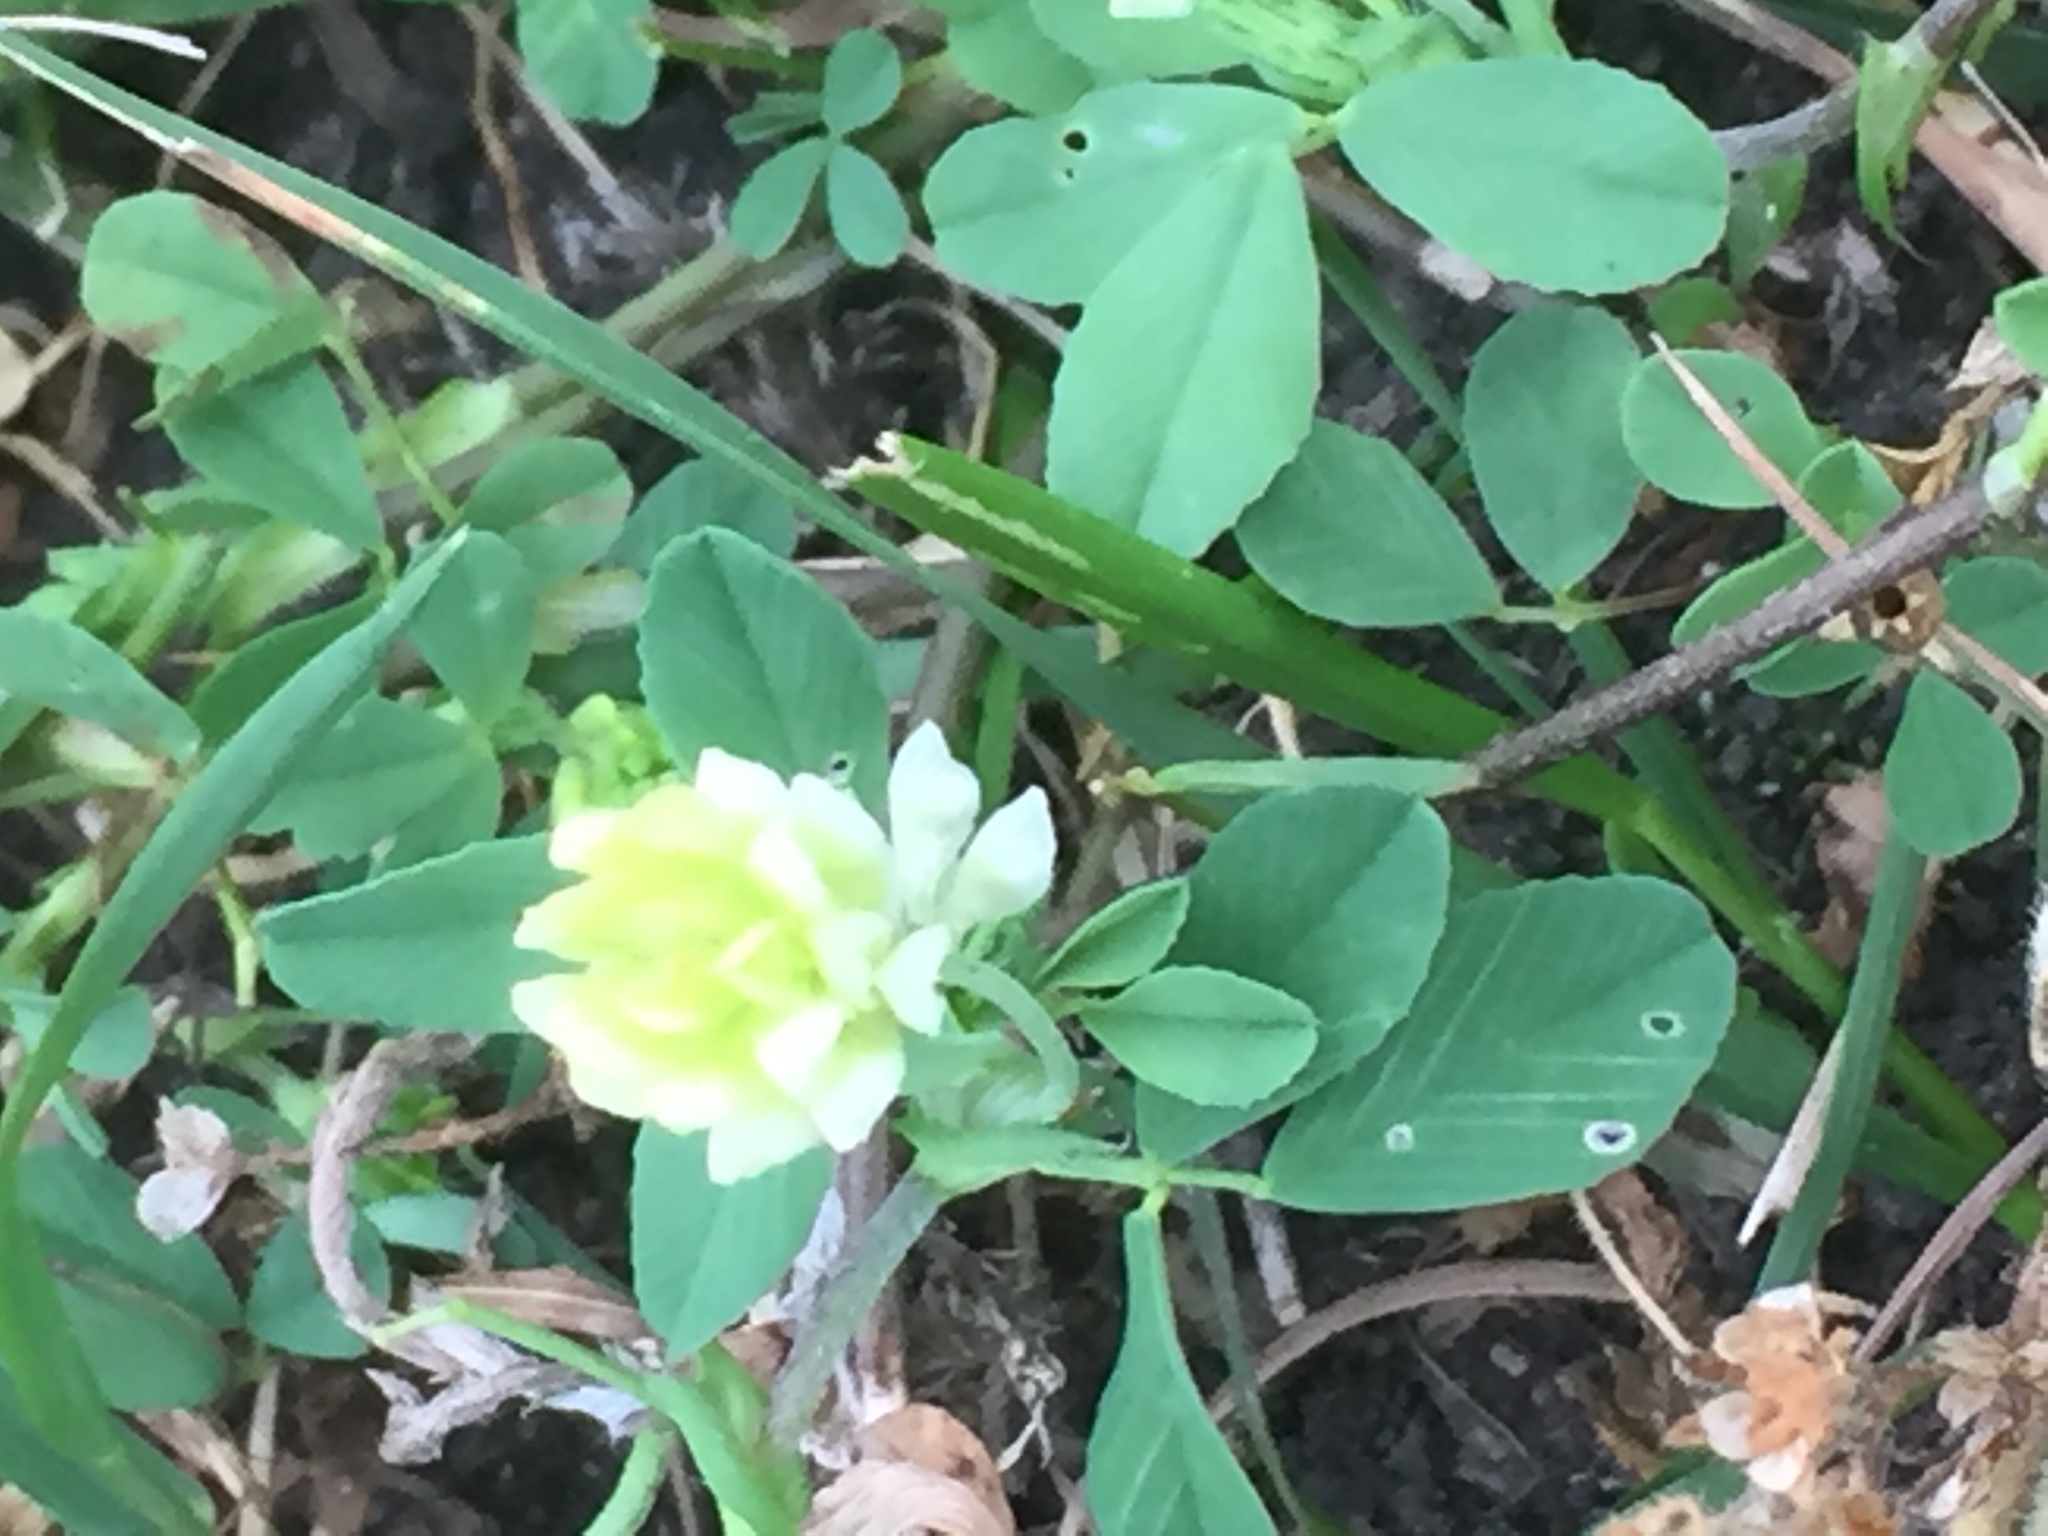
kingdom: Plantae
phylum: Tracheophyta
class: Magnoliopsida
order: Fabales
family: Fabaceae
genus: Trifolium
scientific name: Trifolium campestre
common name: Field clover
